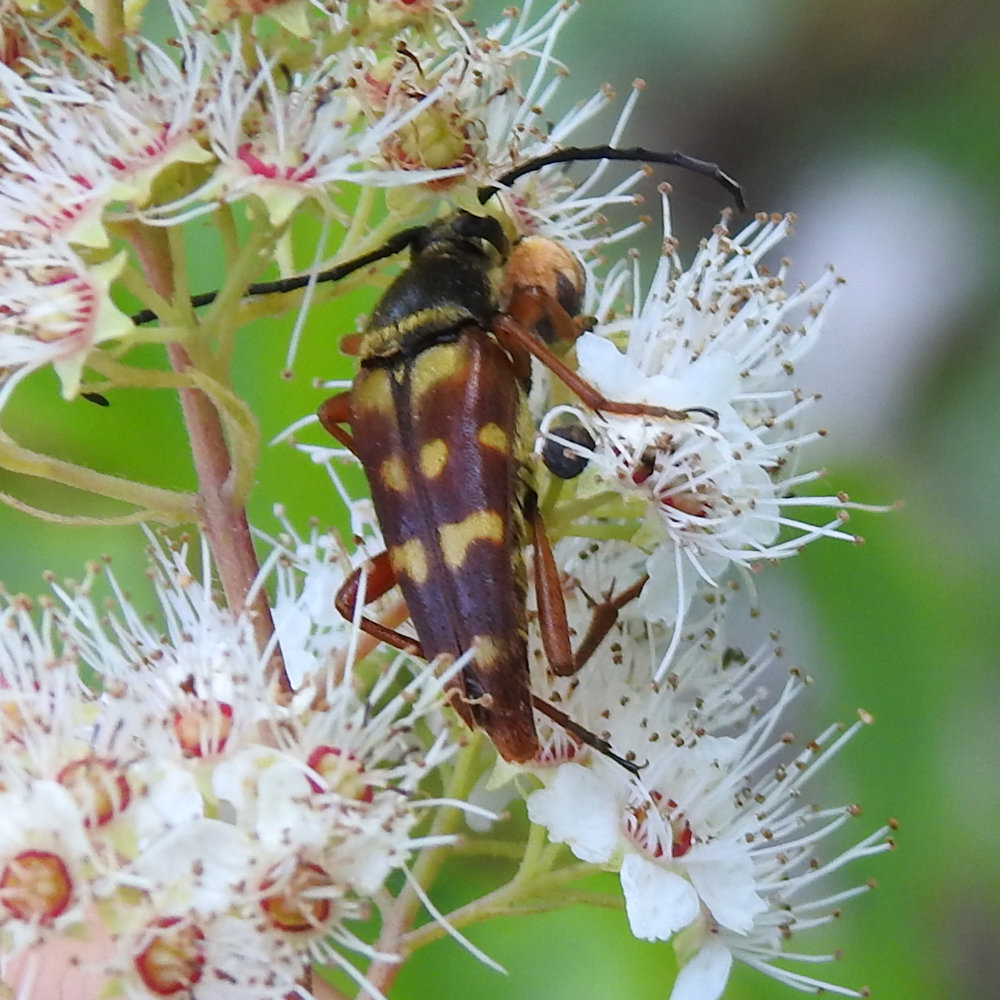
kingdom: Animalia
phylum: Arthropoda
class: Insecta
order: Coleoptera
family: Cerambycidae
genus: Typocerus
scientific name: Typocerus velutinus
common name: Banded longhorn beetle
